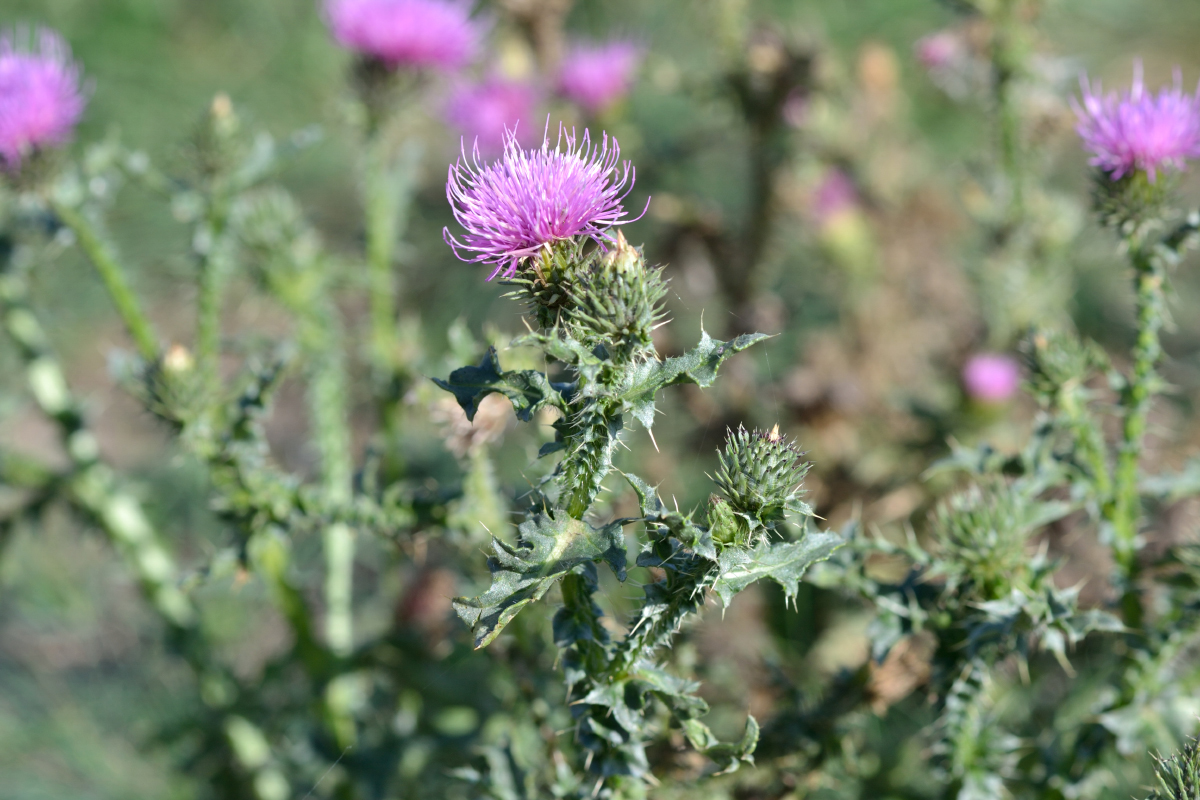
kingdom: Plantae
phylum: Tracheophyta
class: Magnoliopsida
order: Asterales
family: Asteraceae
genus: Carduus
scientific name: Carduus acanthoides
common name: Plumeless thistle
